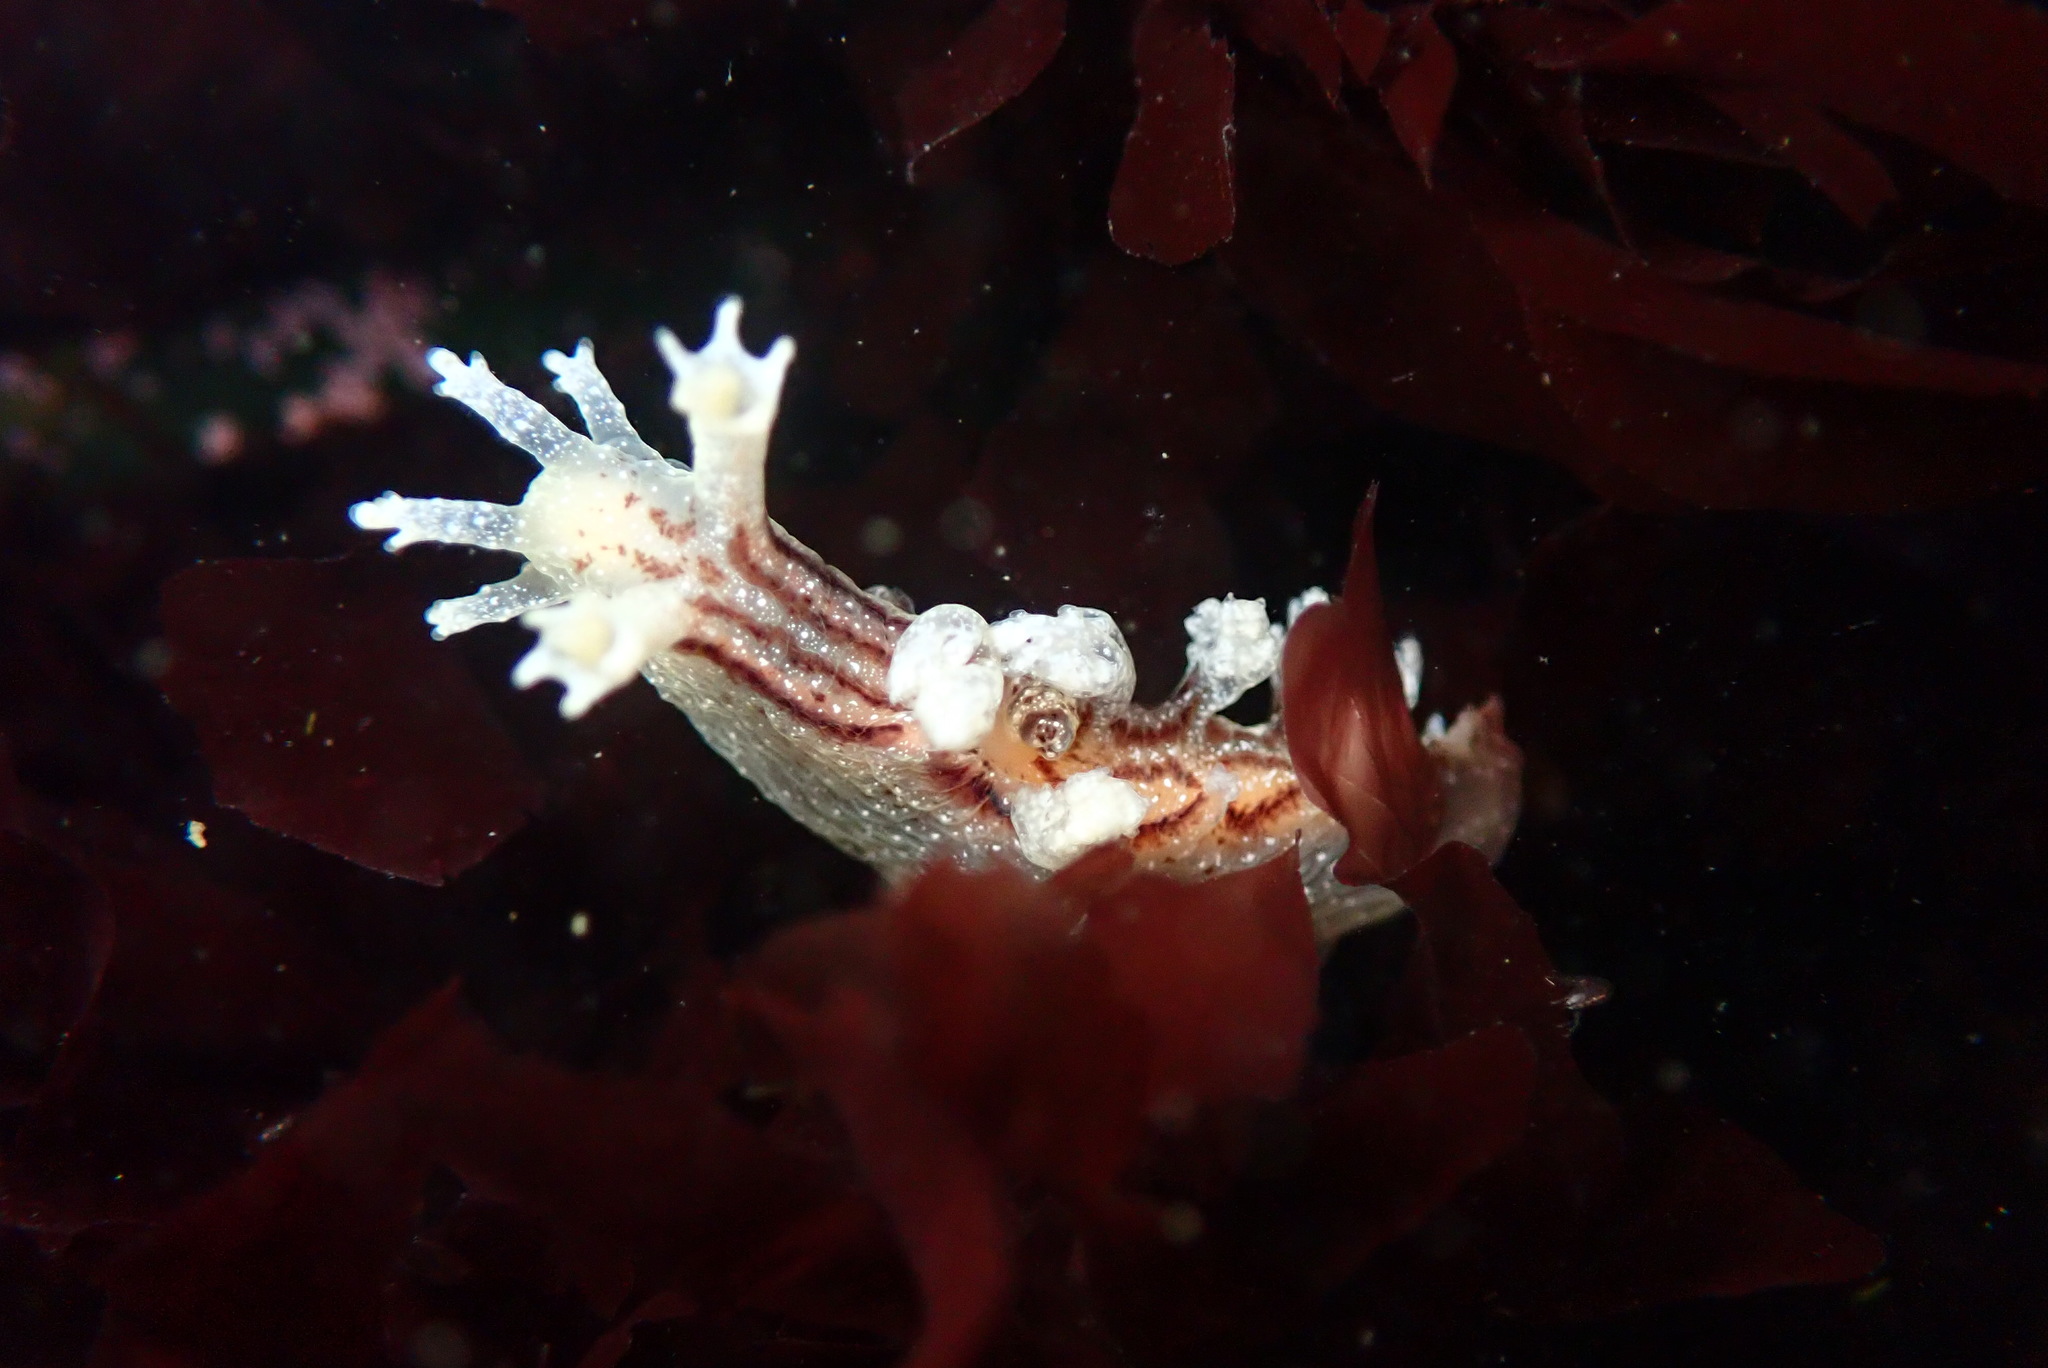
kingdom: Animalia
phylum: Mollusca
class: Gastropoda
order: Nudibranchia
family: Dendronotidae
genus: Dendronotus
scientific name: Dendronotus subramosus
